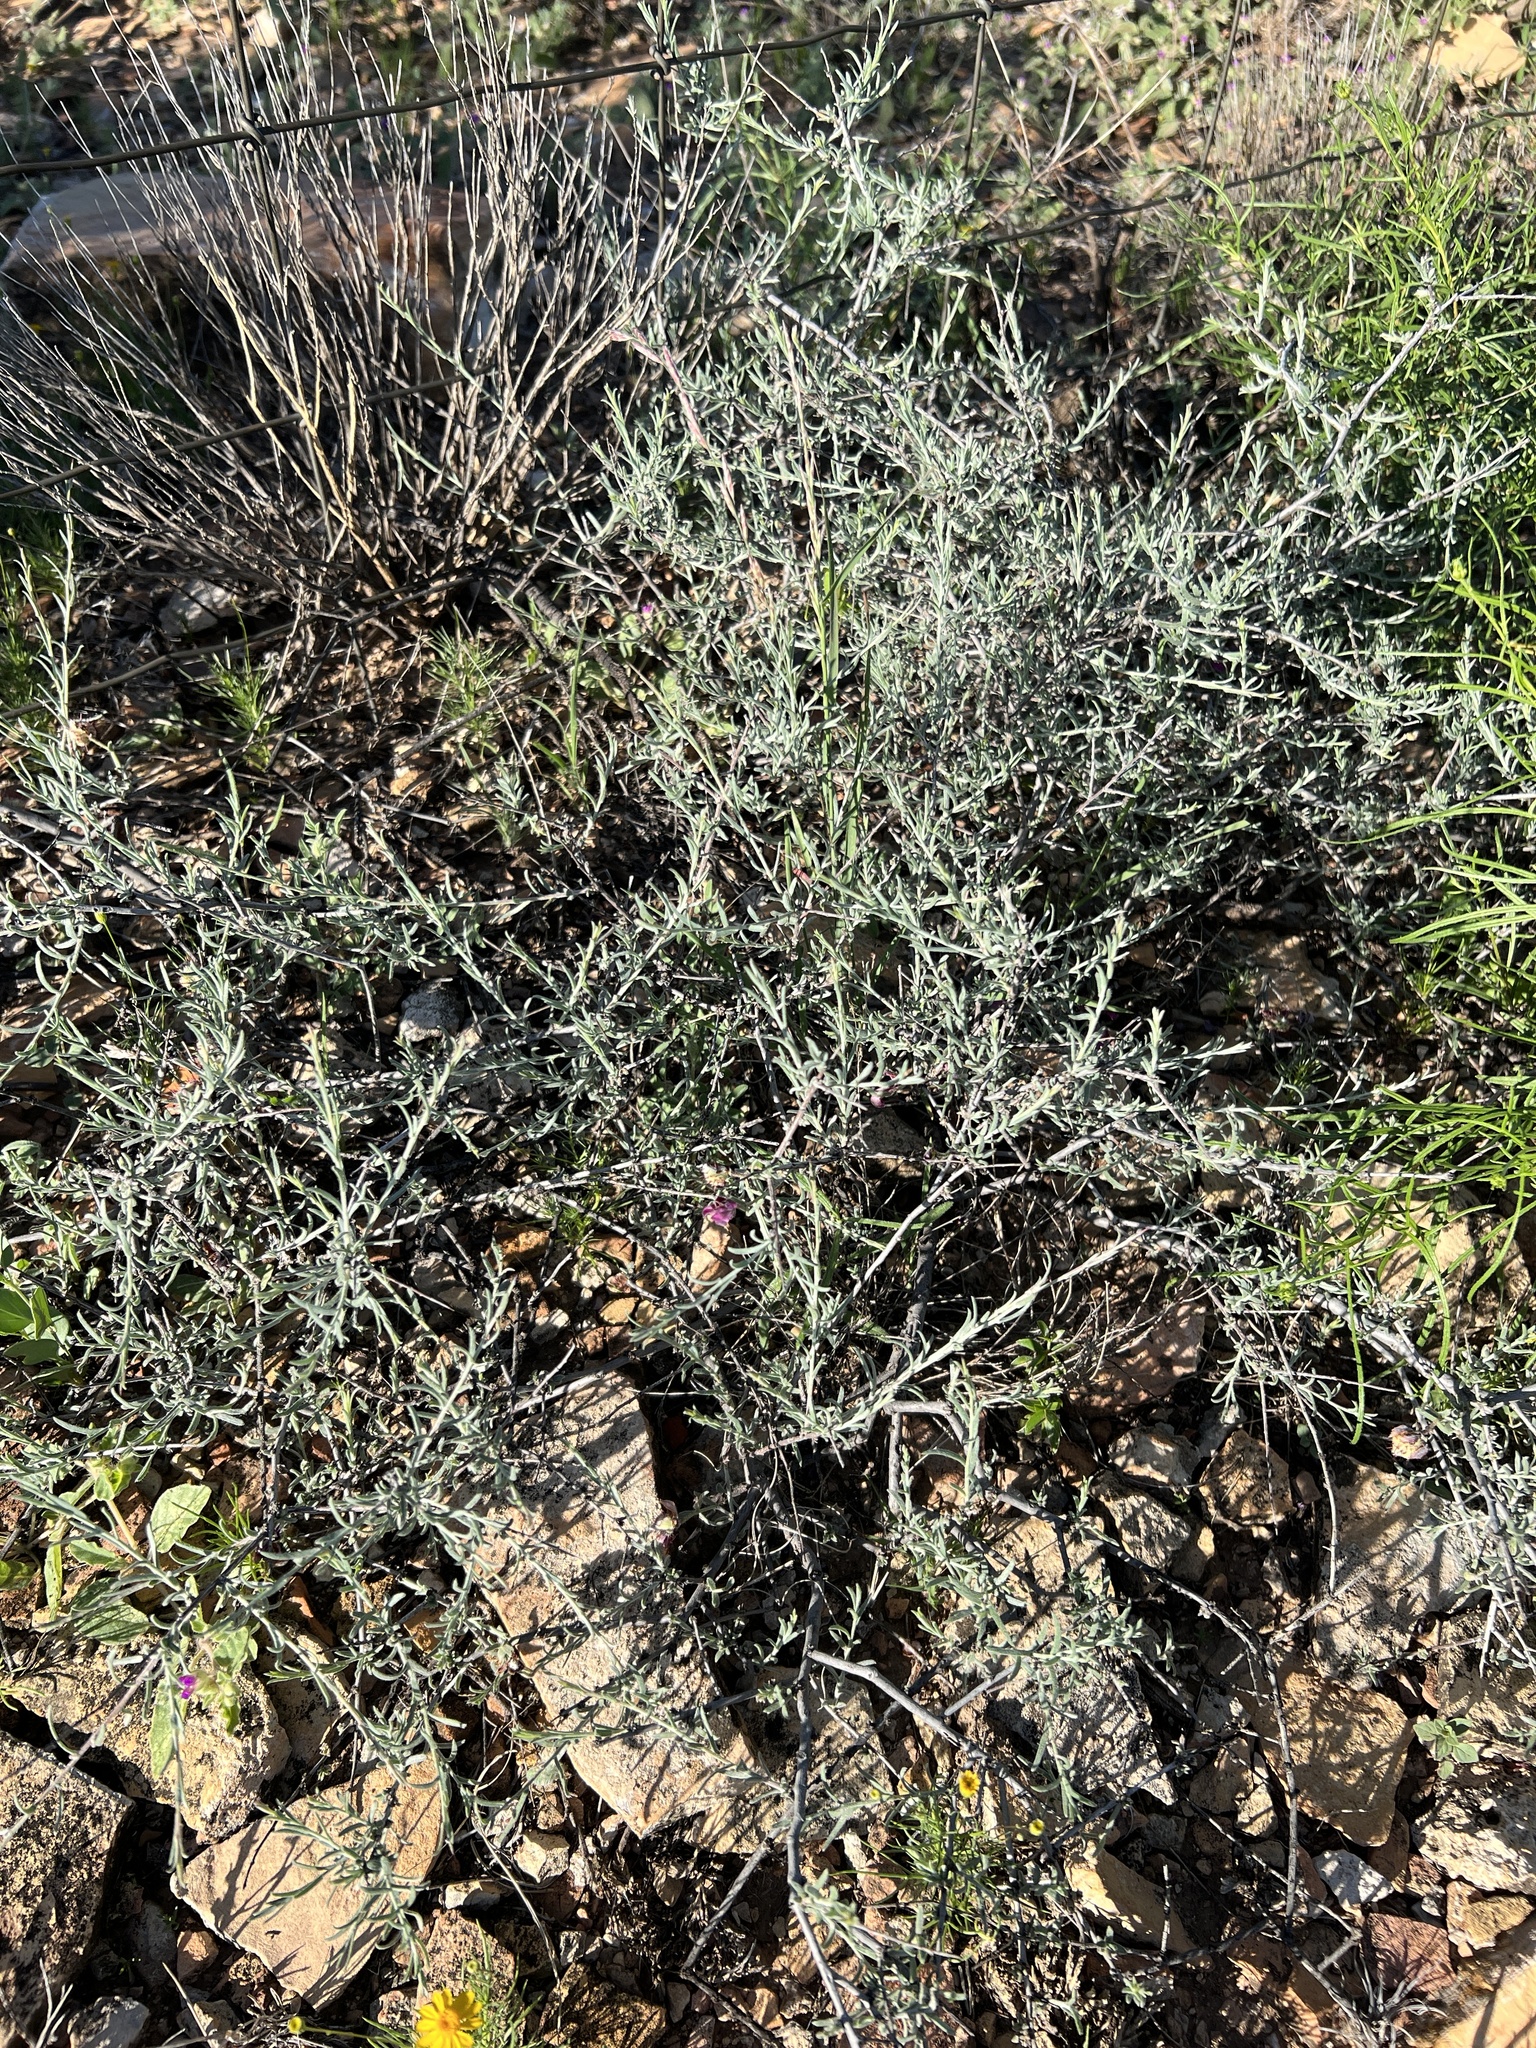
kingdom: Plantae
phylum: Tracheophyta
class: Magnoliopsida
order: Zygophyllales
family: Krameriaceae
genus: Krameria
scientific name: Krameria lanceolata
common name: Ratany
